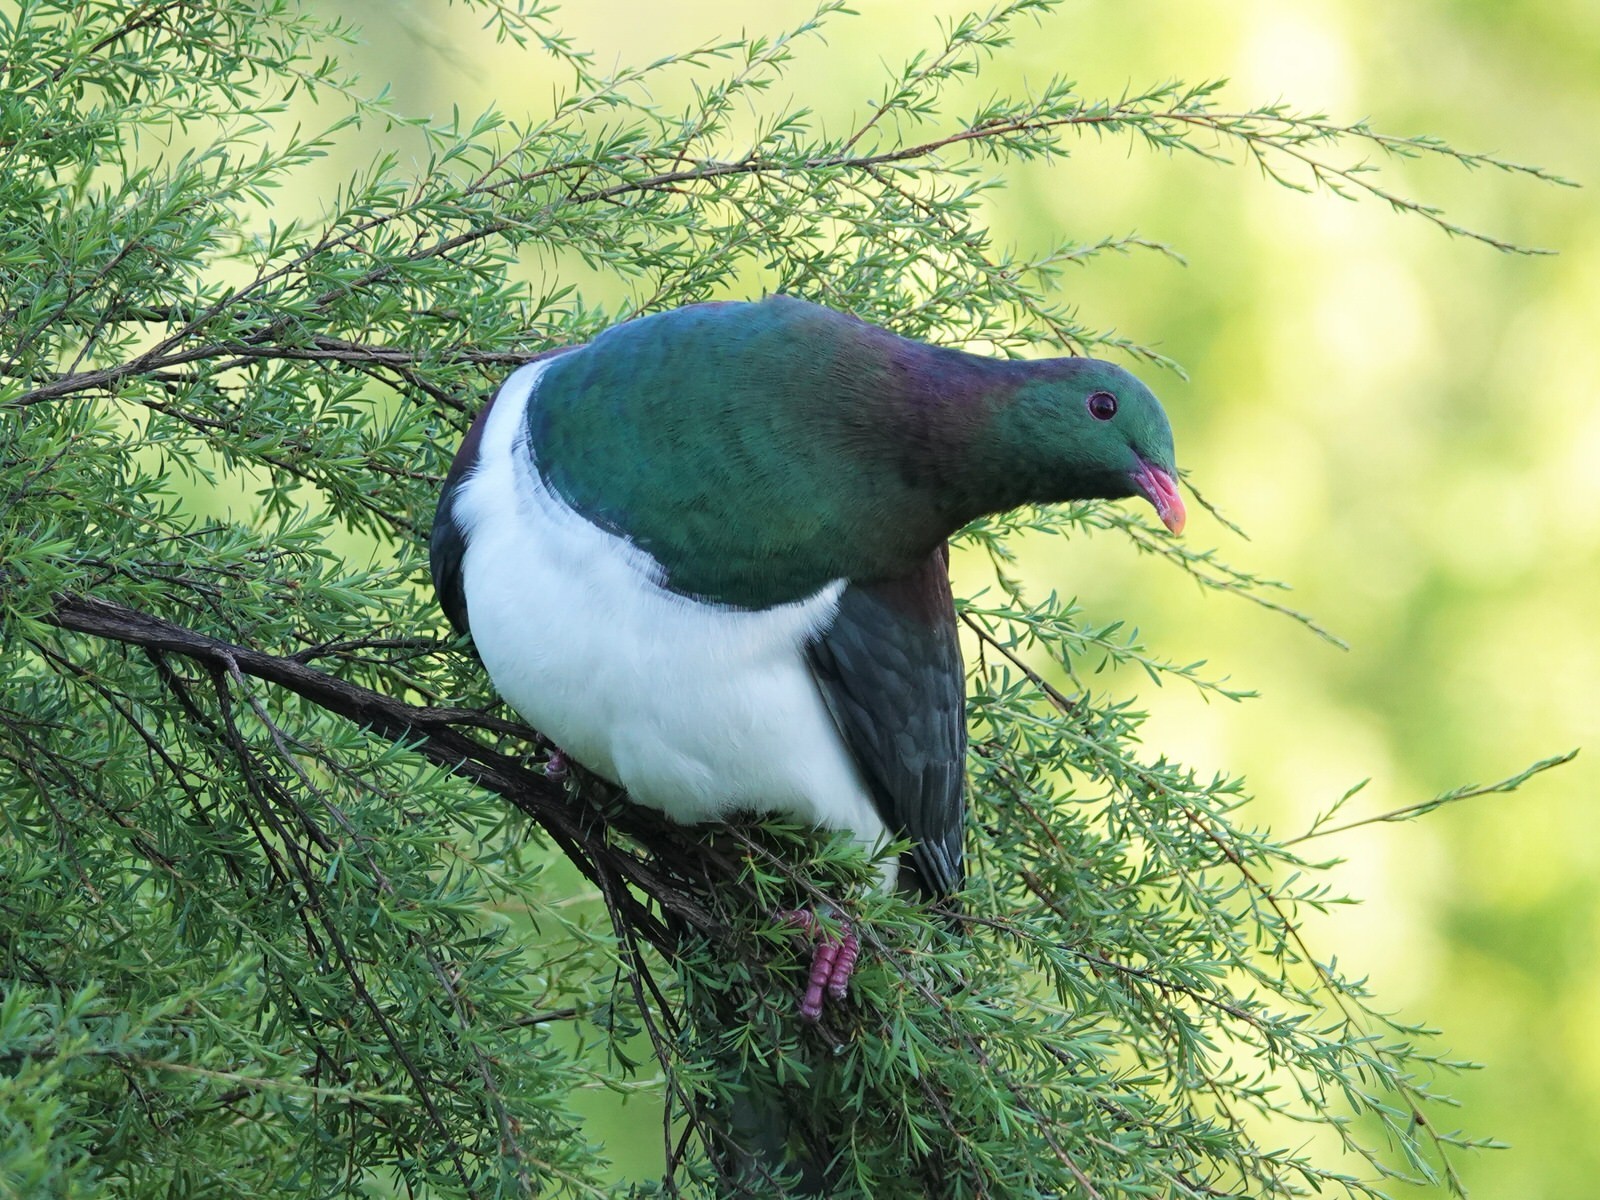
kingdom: Animalia
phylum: Chordata
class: Aves
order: Columbiformes
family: Columbidae
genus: Hemiphaga
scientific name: Hemiphaga novaeseelandiae
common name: New zealand pigeon
